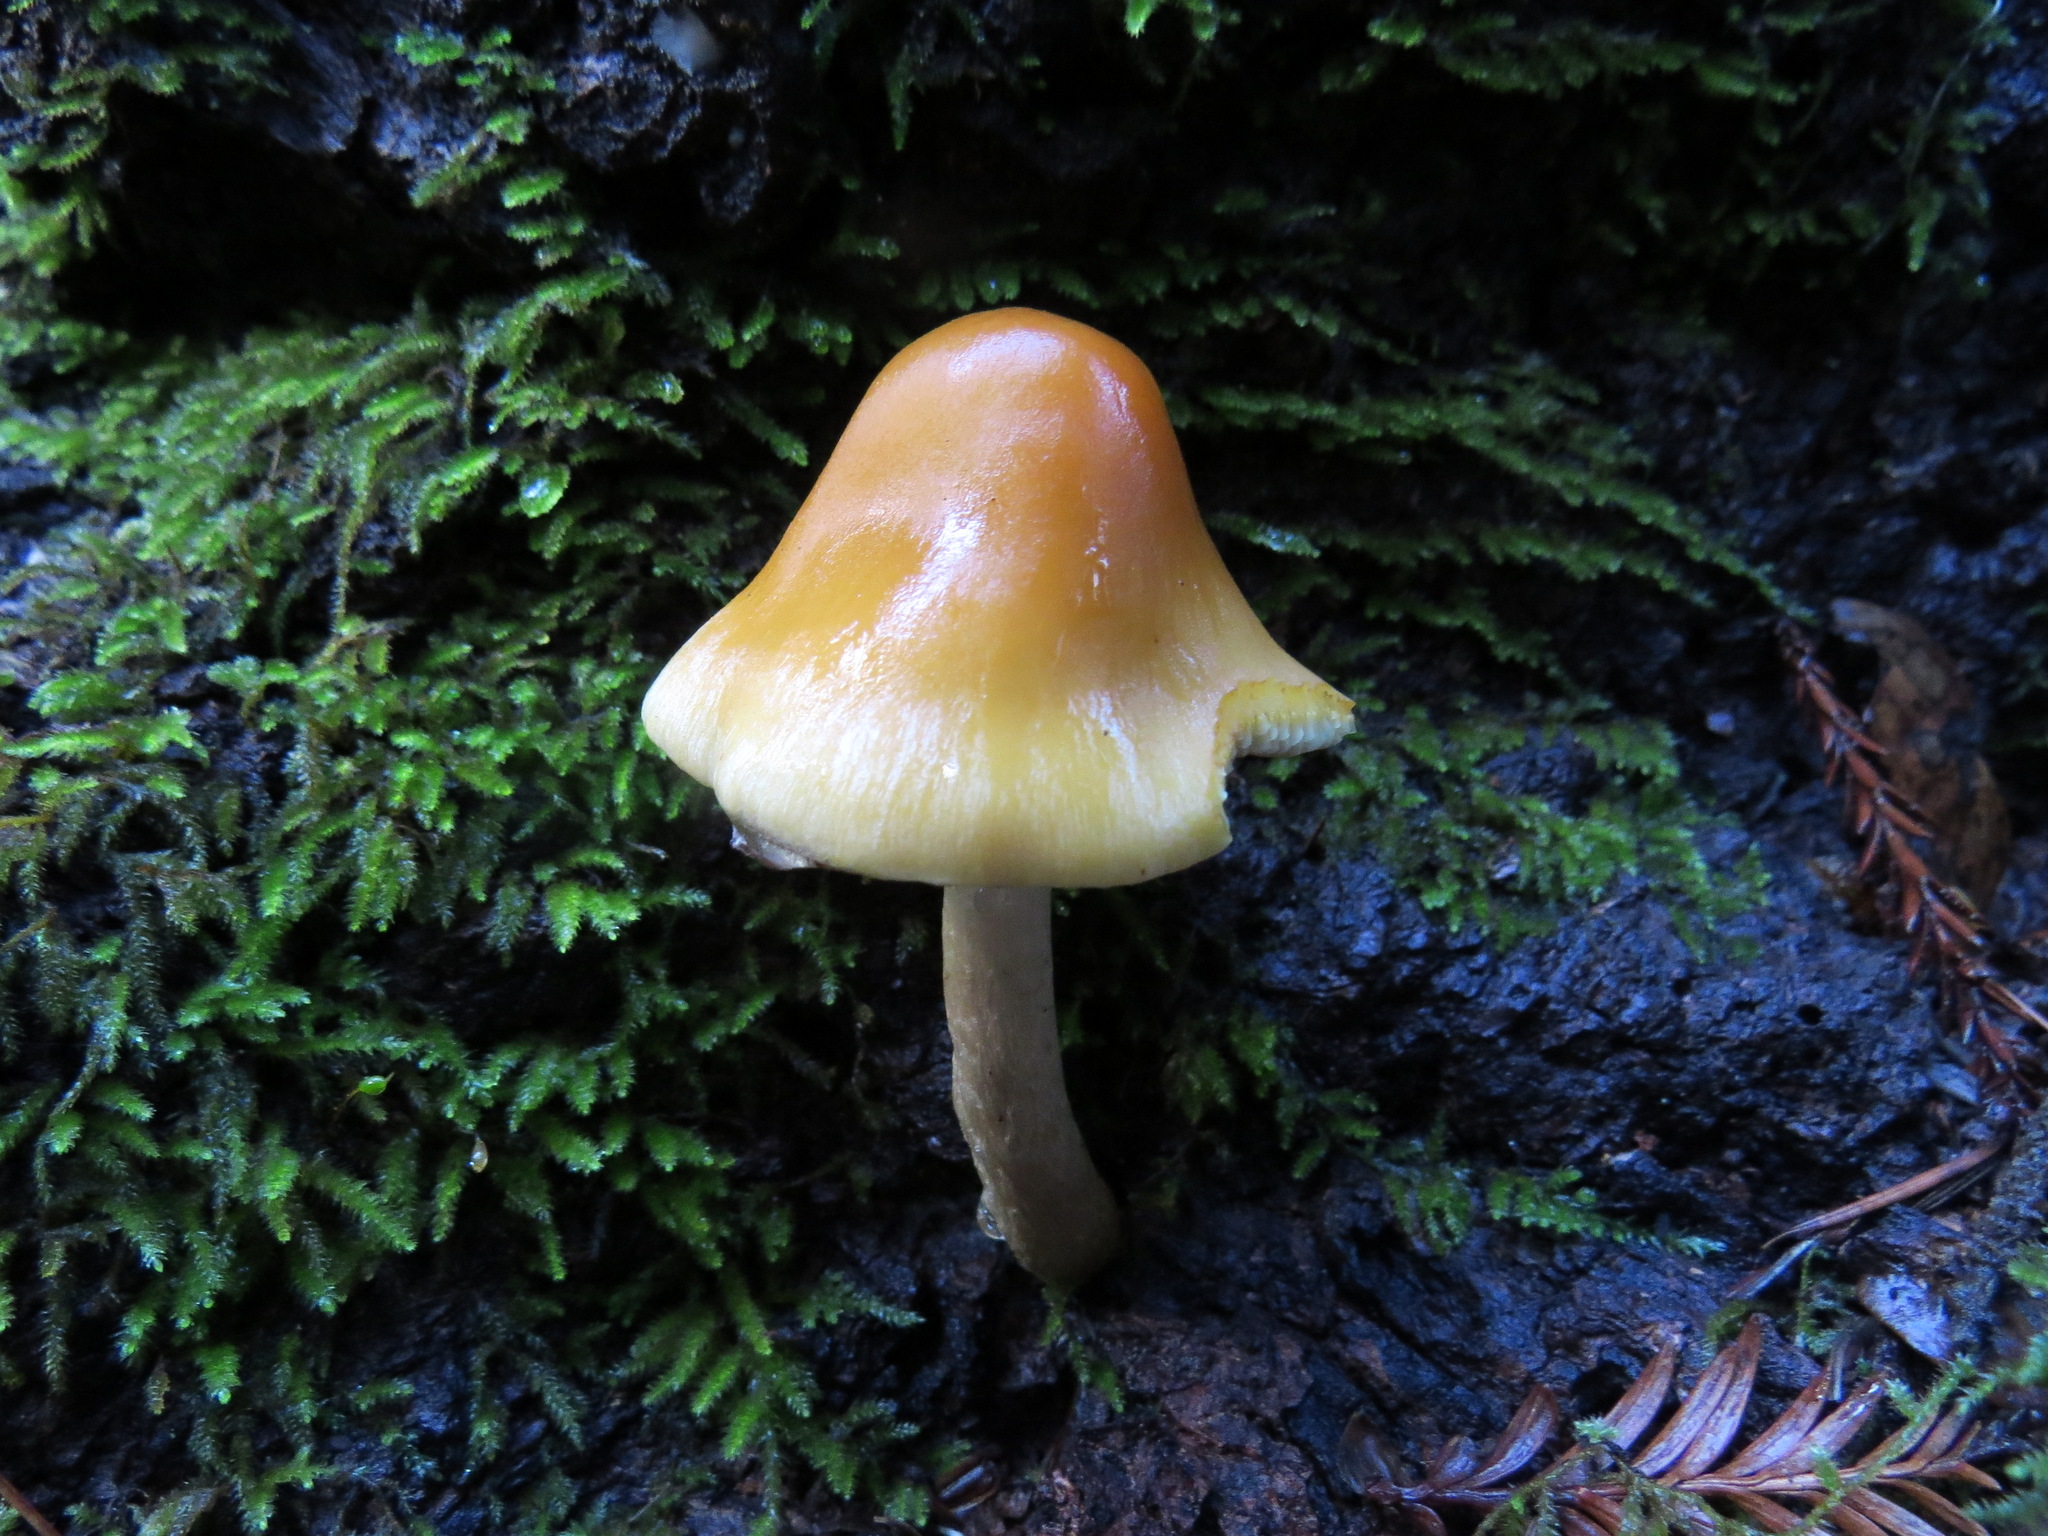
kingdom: Fungi
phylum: Basidiomycota
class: Agaricomycetes
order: Agaricales
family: Strophariaceae
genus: Hypholoma
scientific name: Hypholoma capnoides
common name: Conifer tuft
